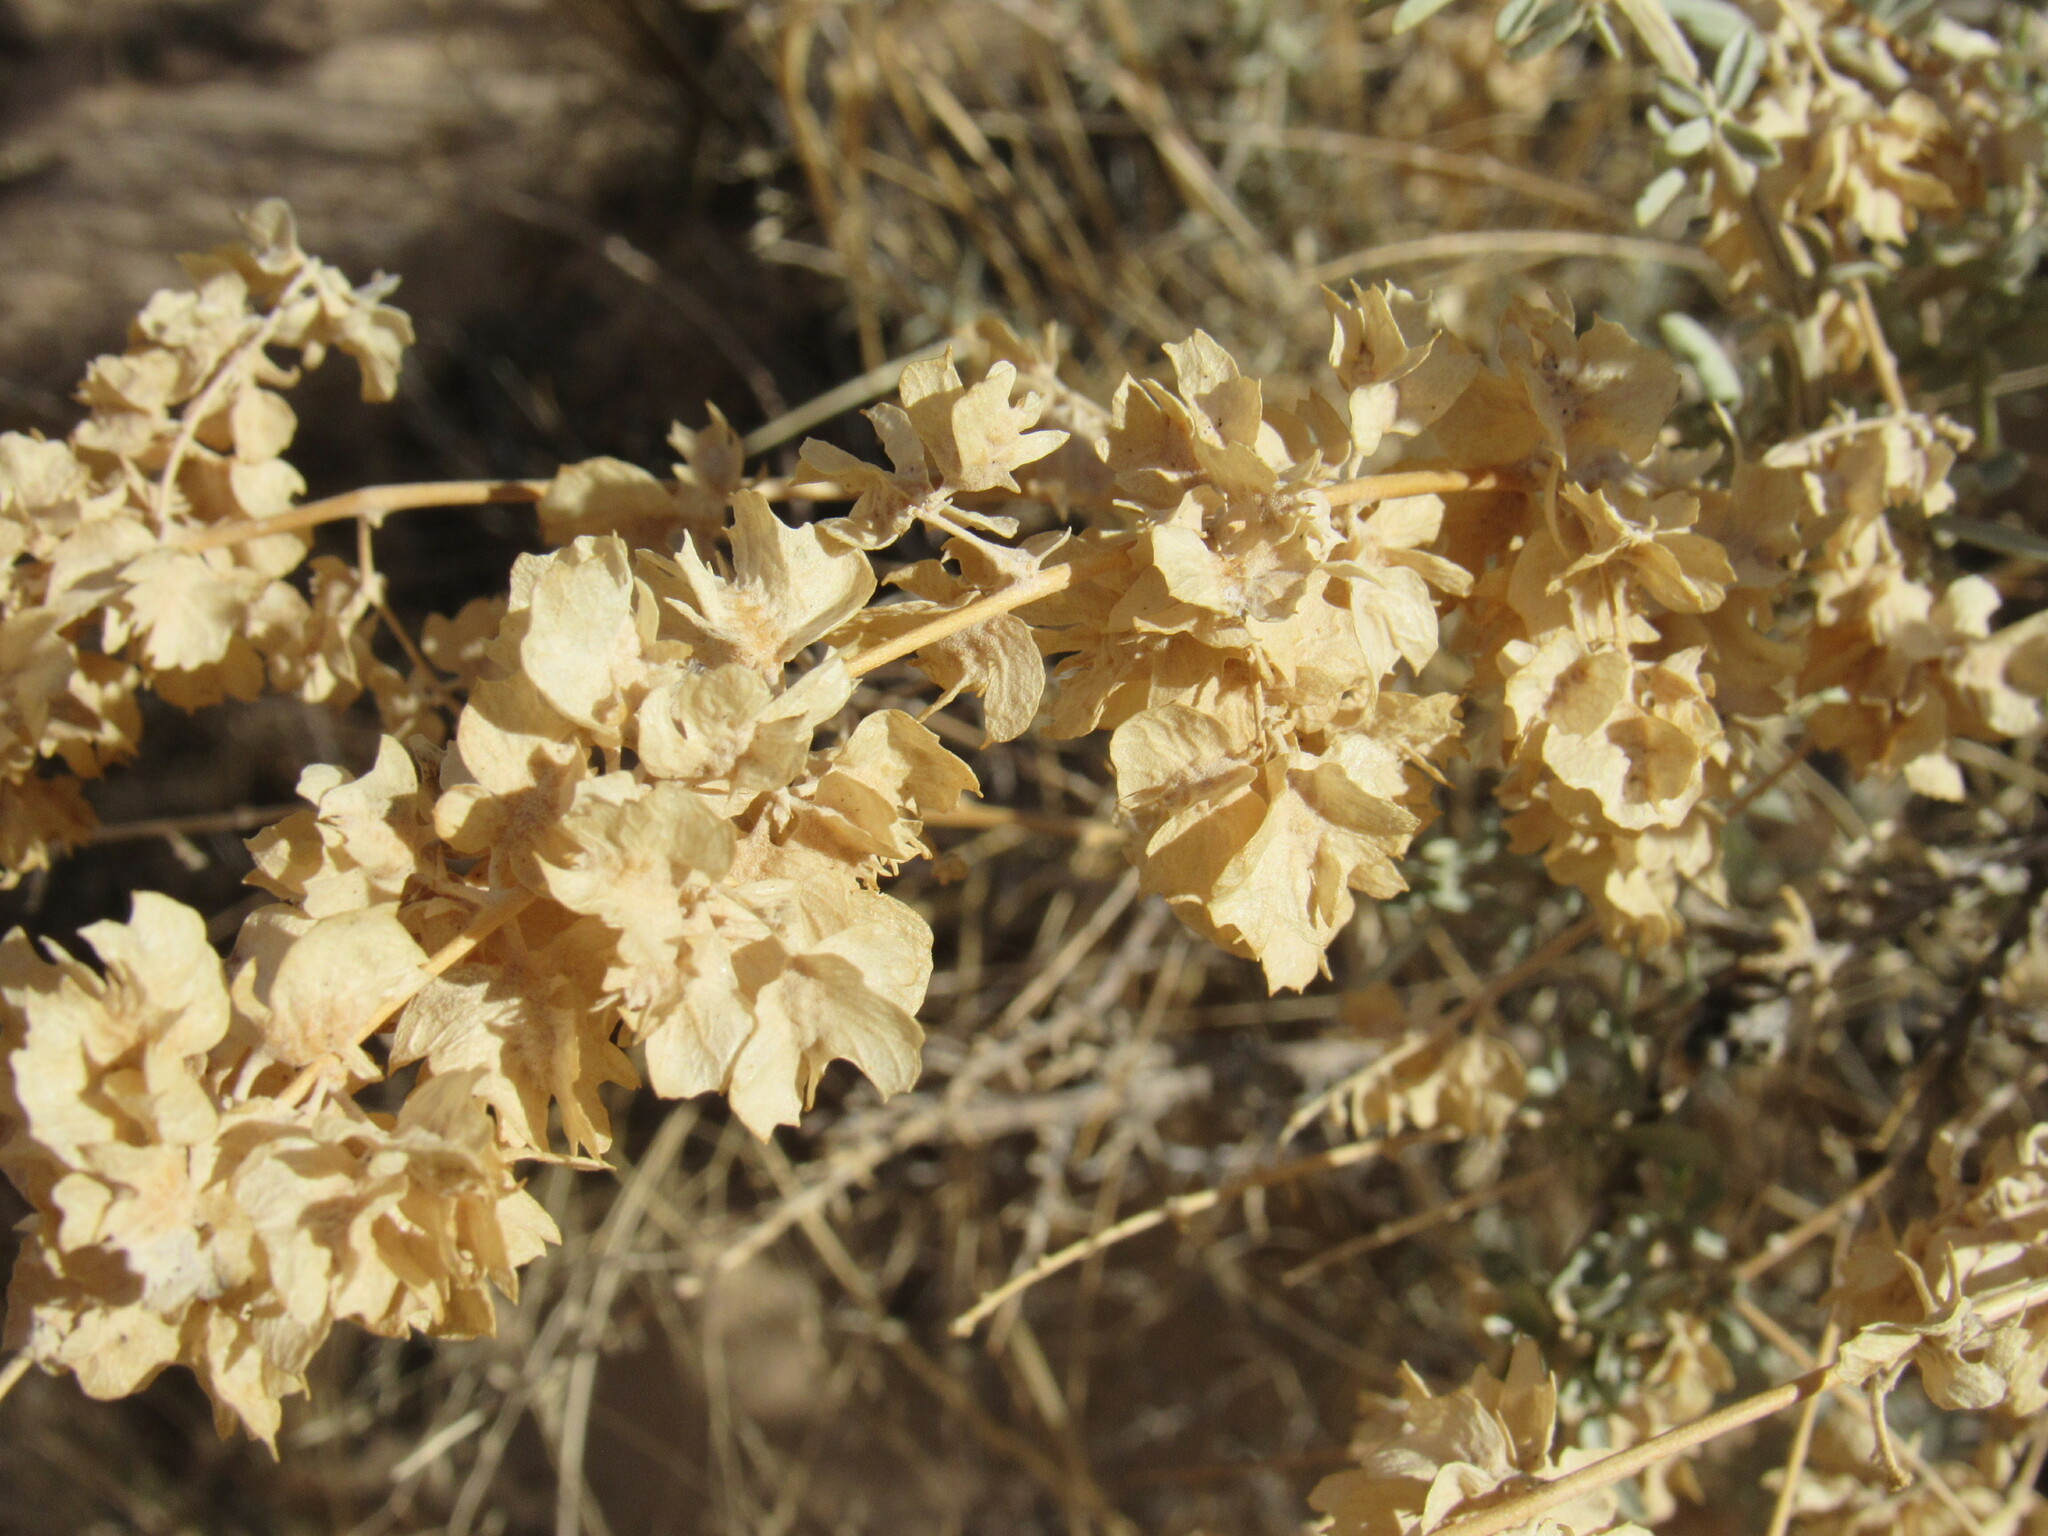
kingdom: Plantae
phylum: Tracheophyta
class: Magnoliopsida
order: Caryophyllales
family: Amaranthaceae
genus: Atriplex
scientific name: Atriplex canescens
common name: Four-wing saltbush
